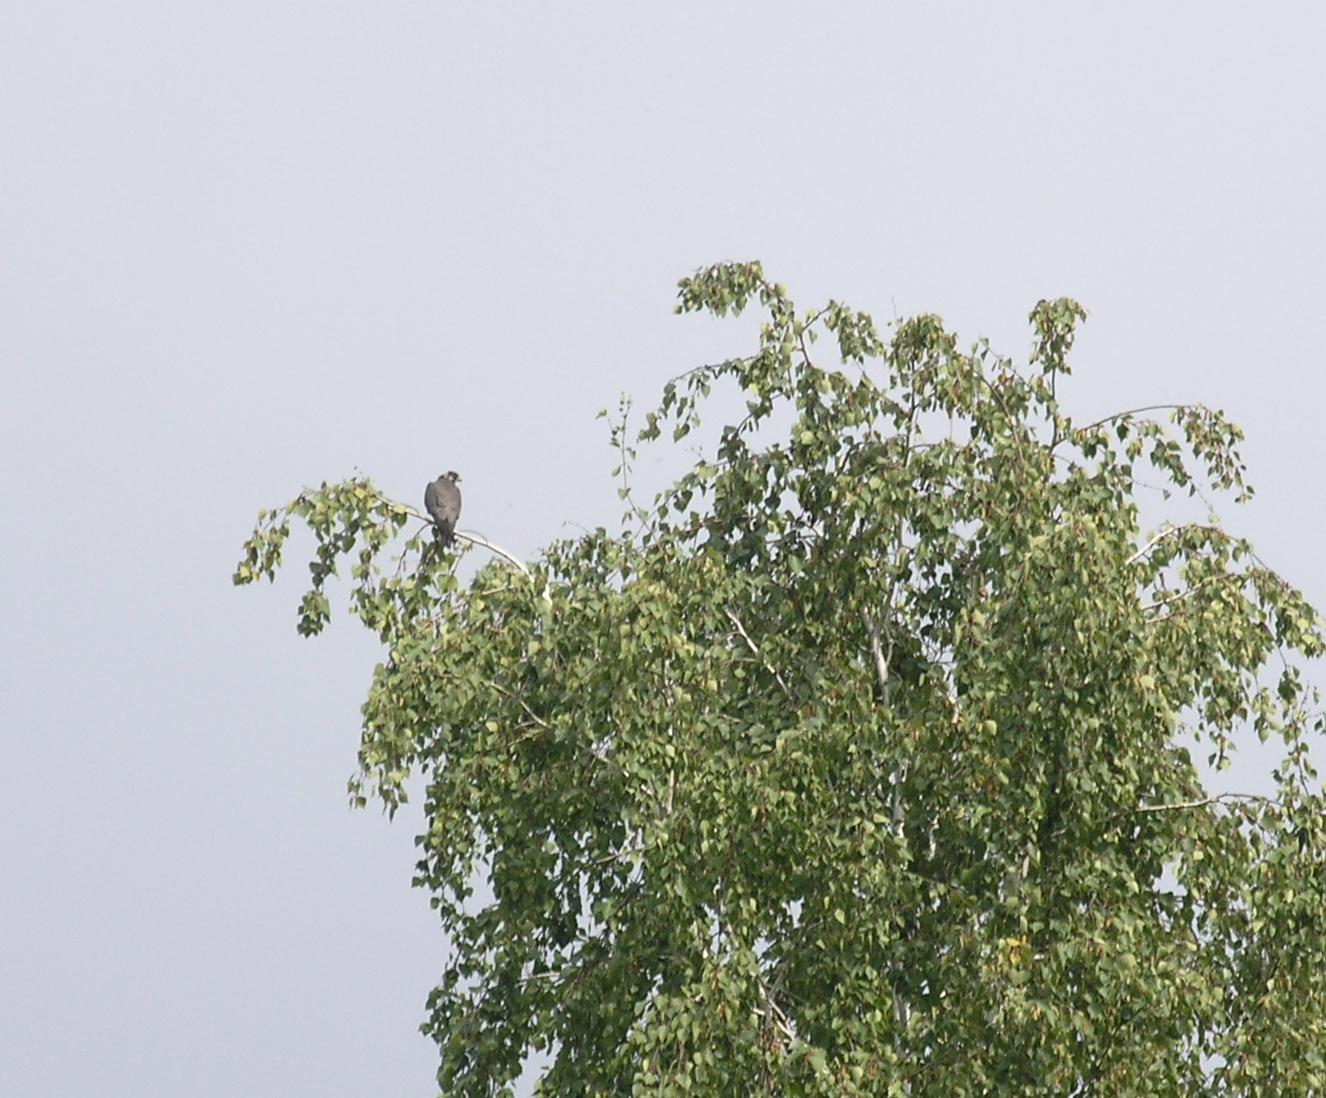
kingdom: Animalia
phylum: Chordata
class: Aves
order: Falconiformes
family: Falconidae
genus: Falco
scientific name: Falco subbuteo
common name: Eurasian hobby
